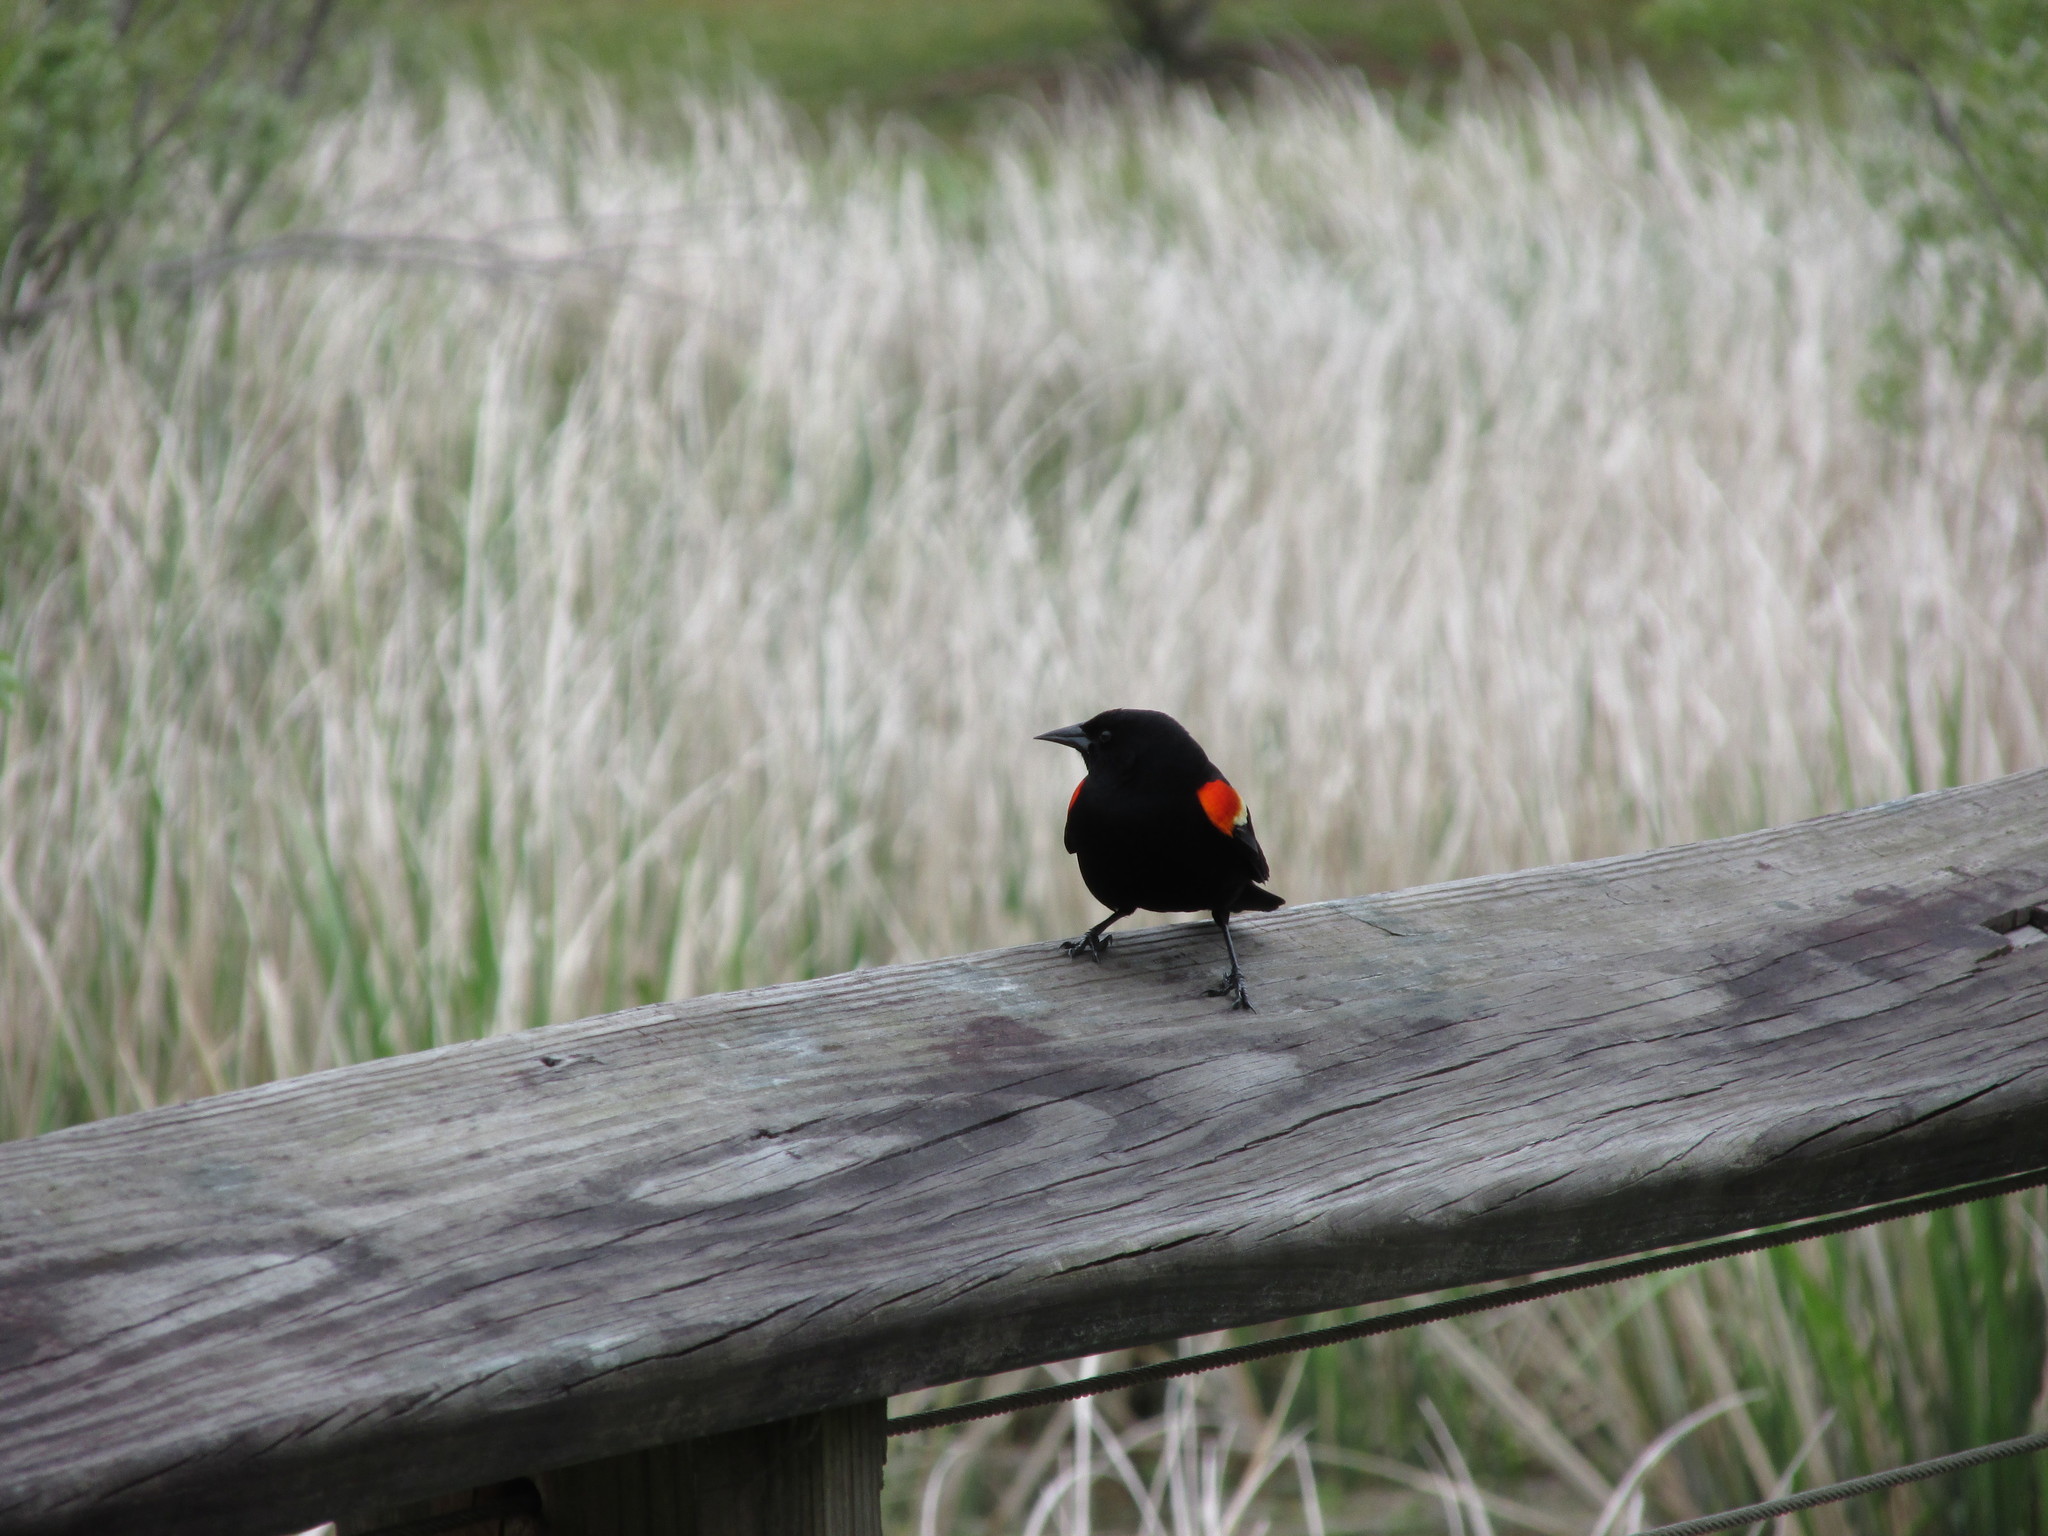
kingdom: Animalia
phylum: Chordata
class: Aves
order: Passeriformes
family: Icteridae
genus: Agelaius
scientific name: Agelaius phoeniceus
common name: Red-winged blackbird
